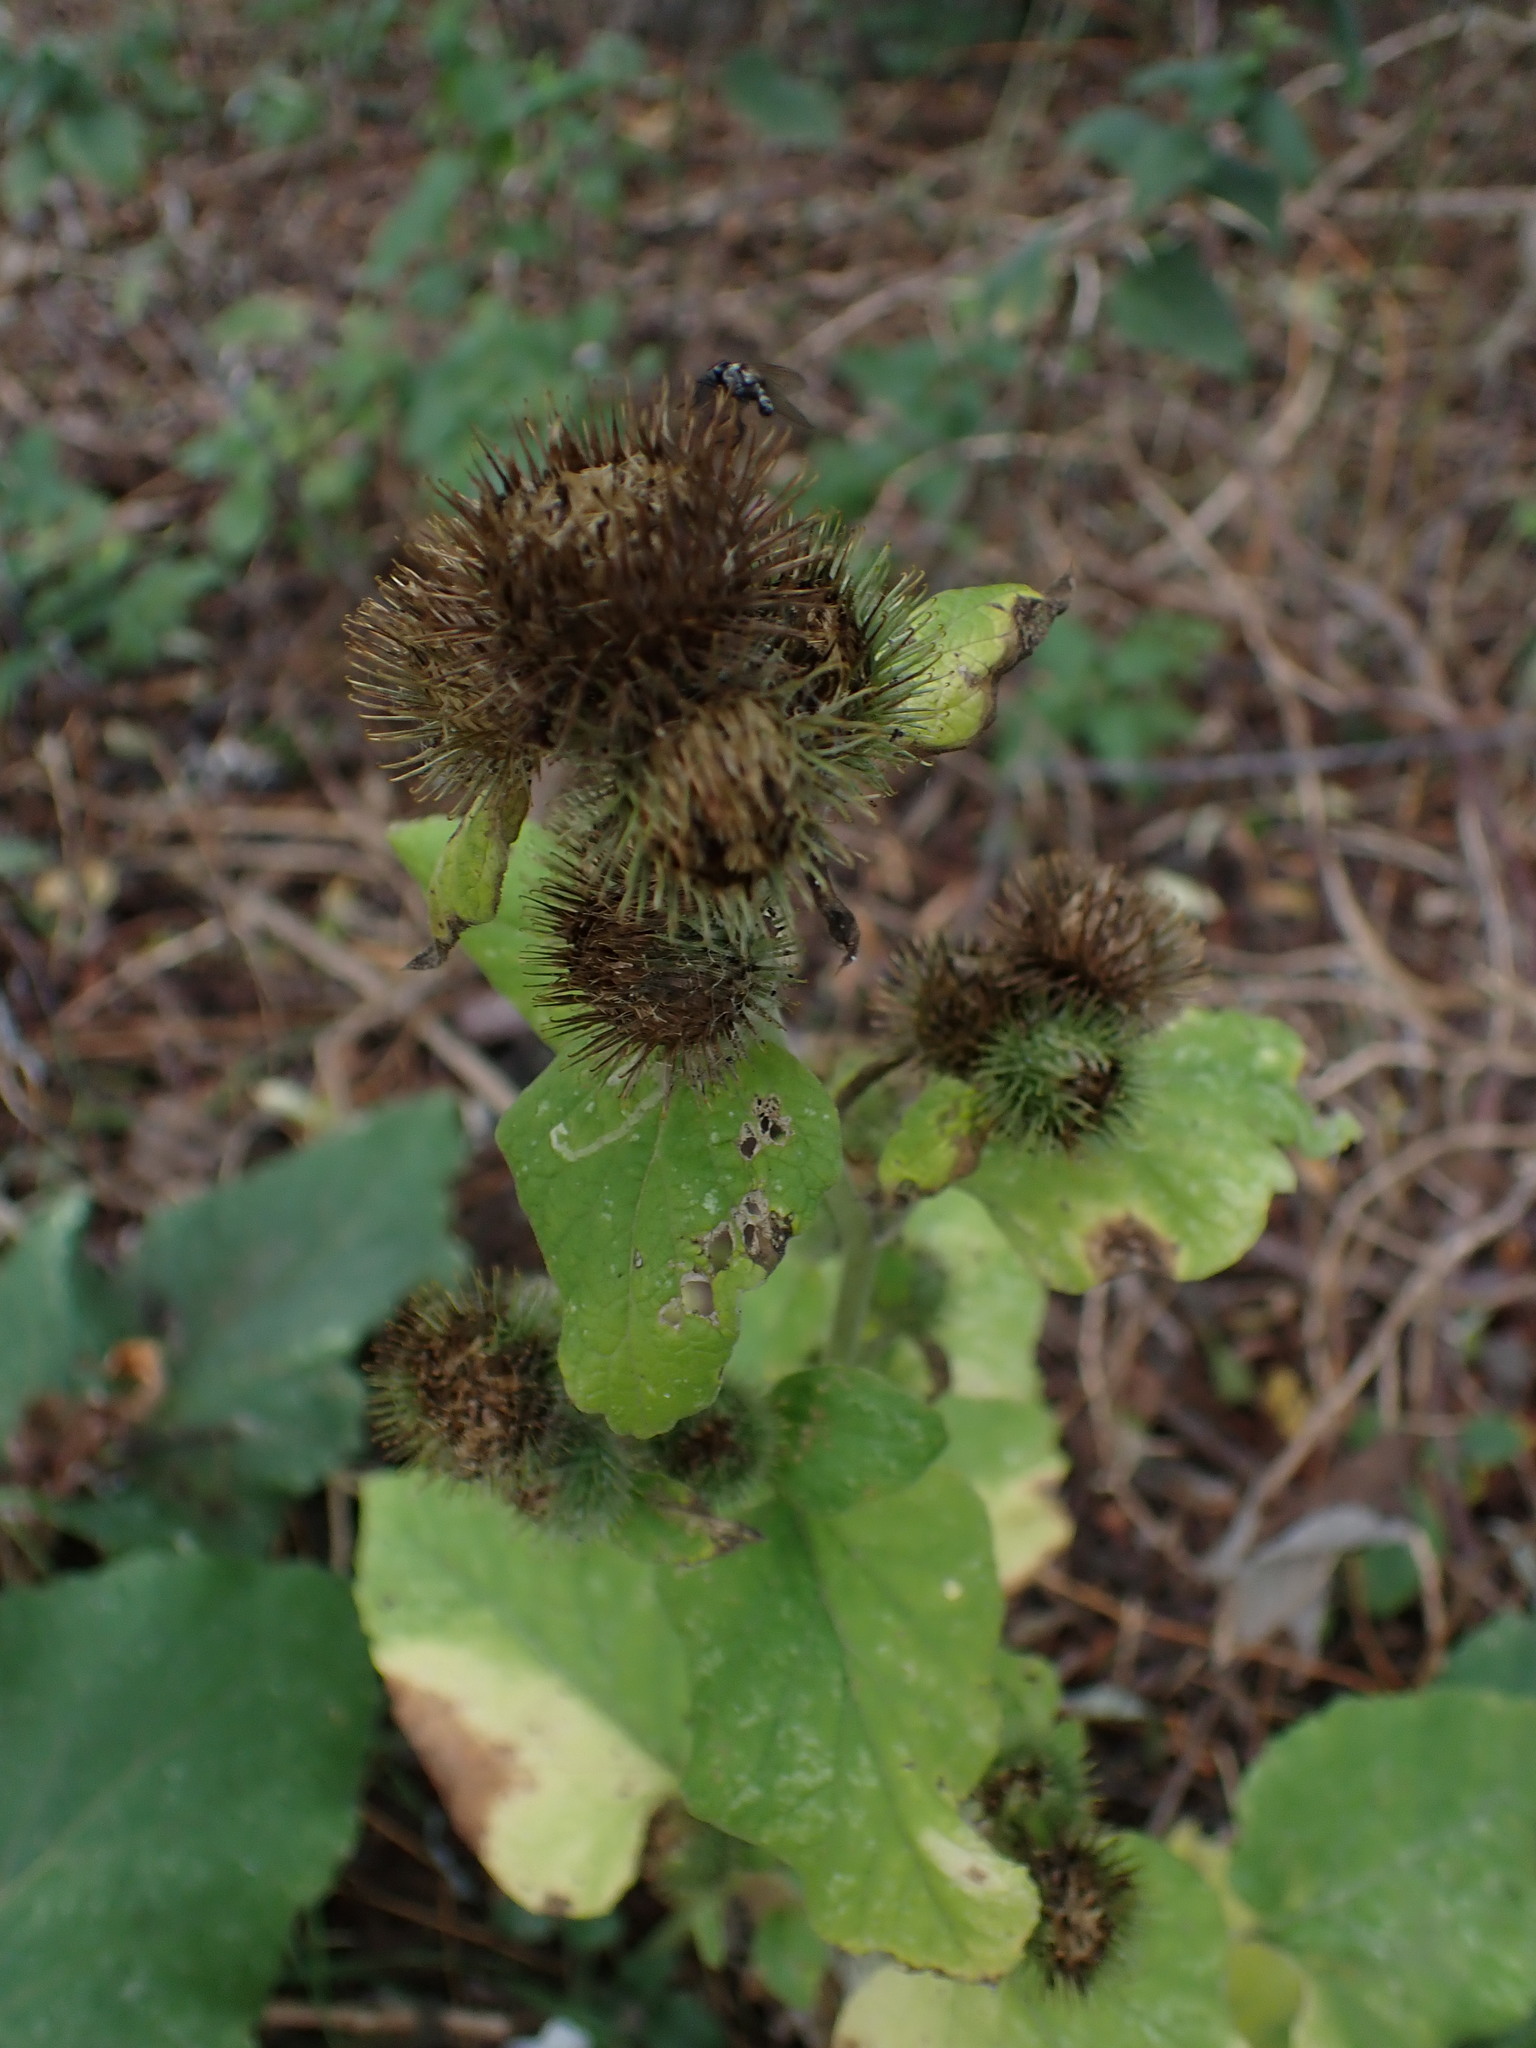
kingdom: Plantae
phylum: Tracheophyta
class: Magnoliopsida
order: Asterales
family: Asteraceae
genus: Arctium
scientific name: Arctium minus
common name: Lesser burdock
